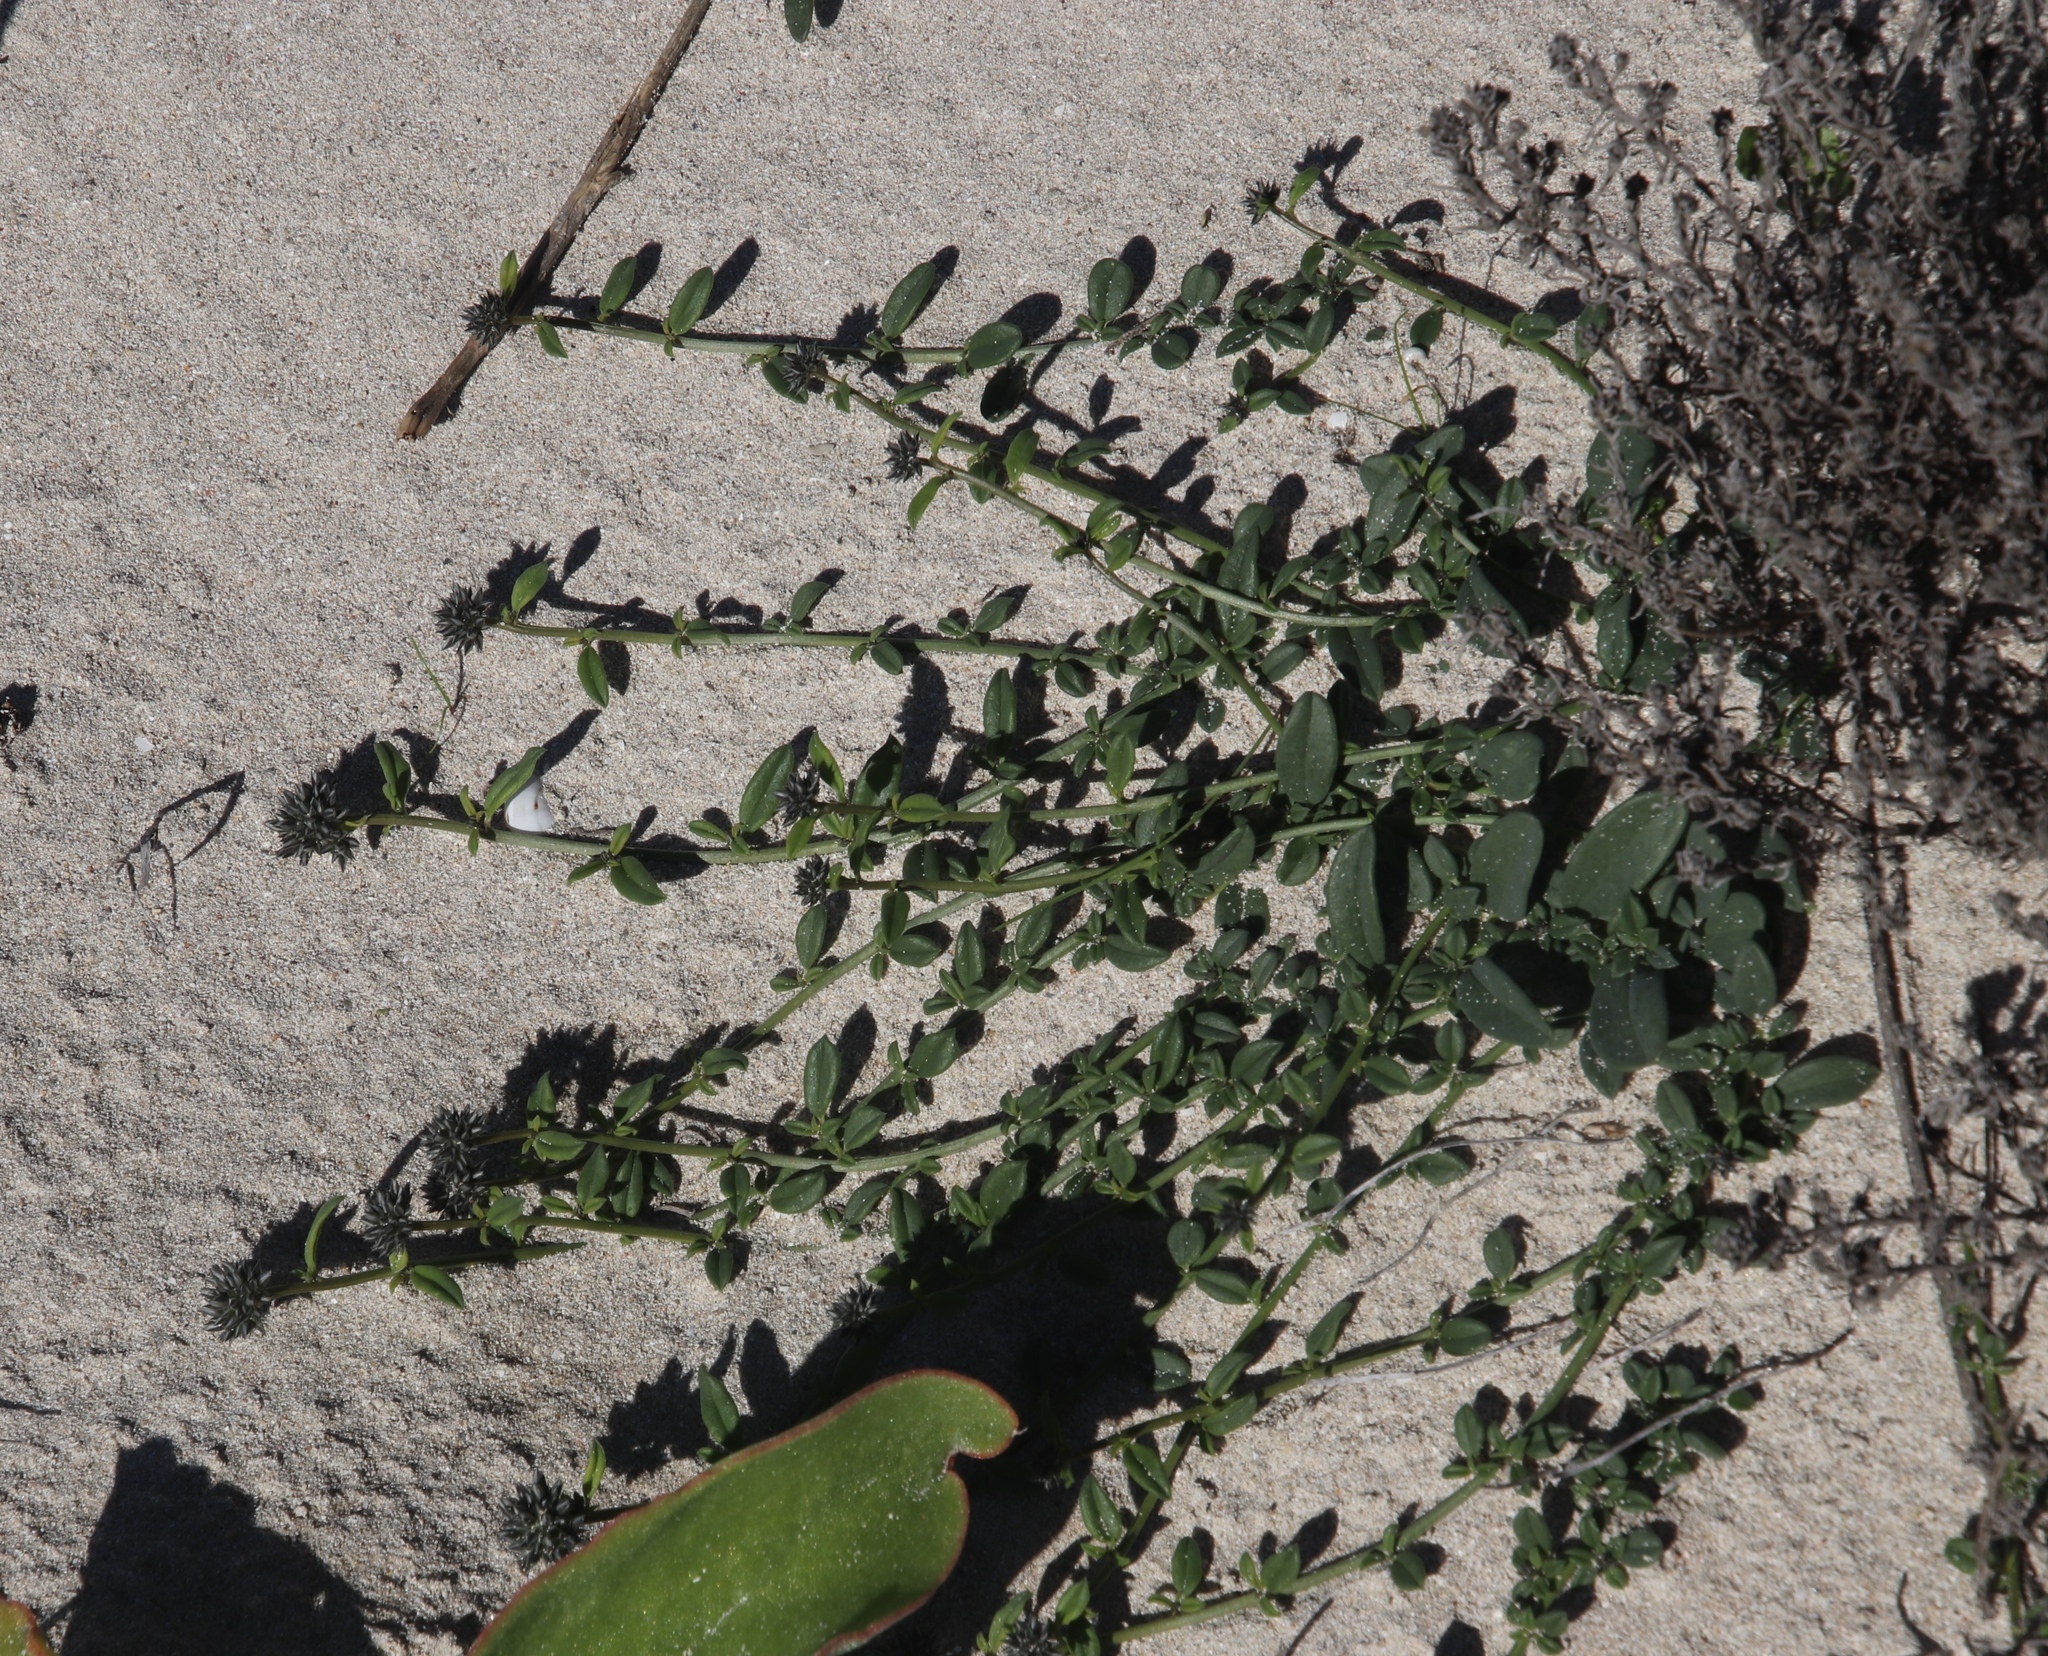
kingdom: Plantae
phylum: Tracheophyta
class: Magnoliopsida
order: Caryophyllales
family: Limeaceae
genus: Limeum
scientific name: Limeum africanum
